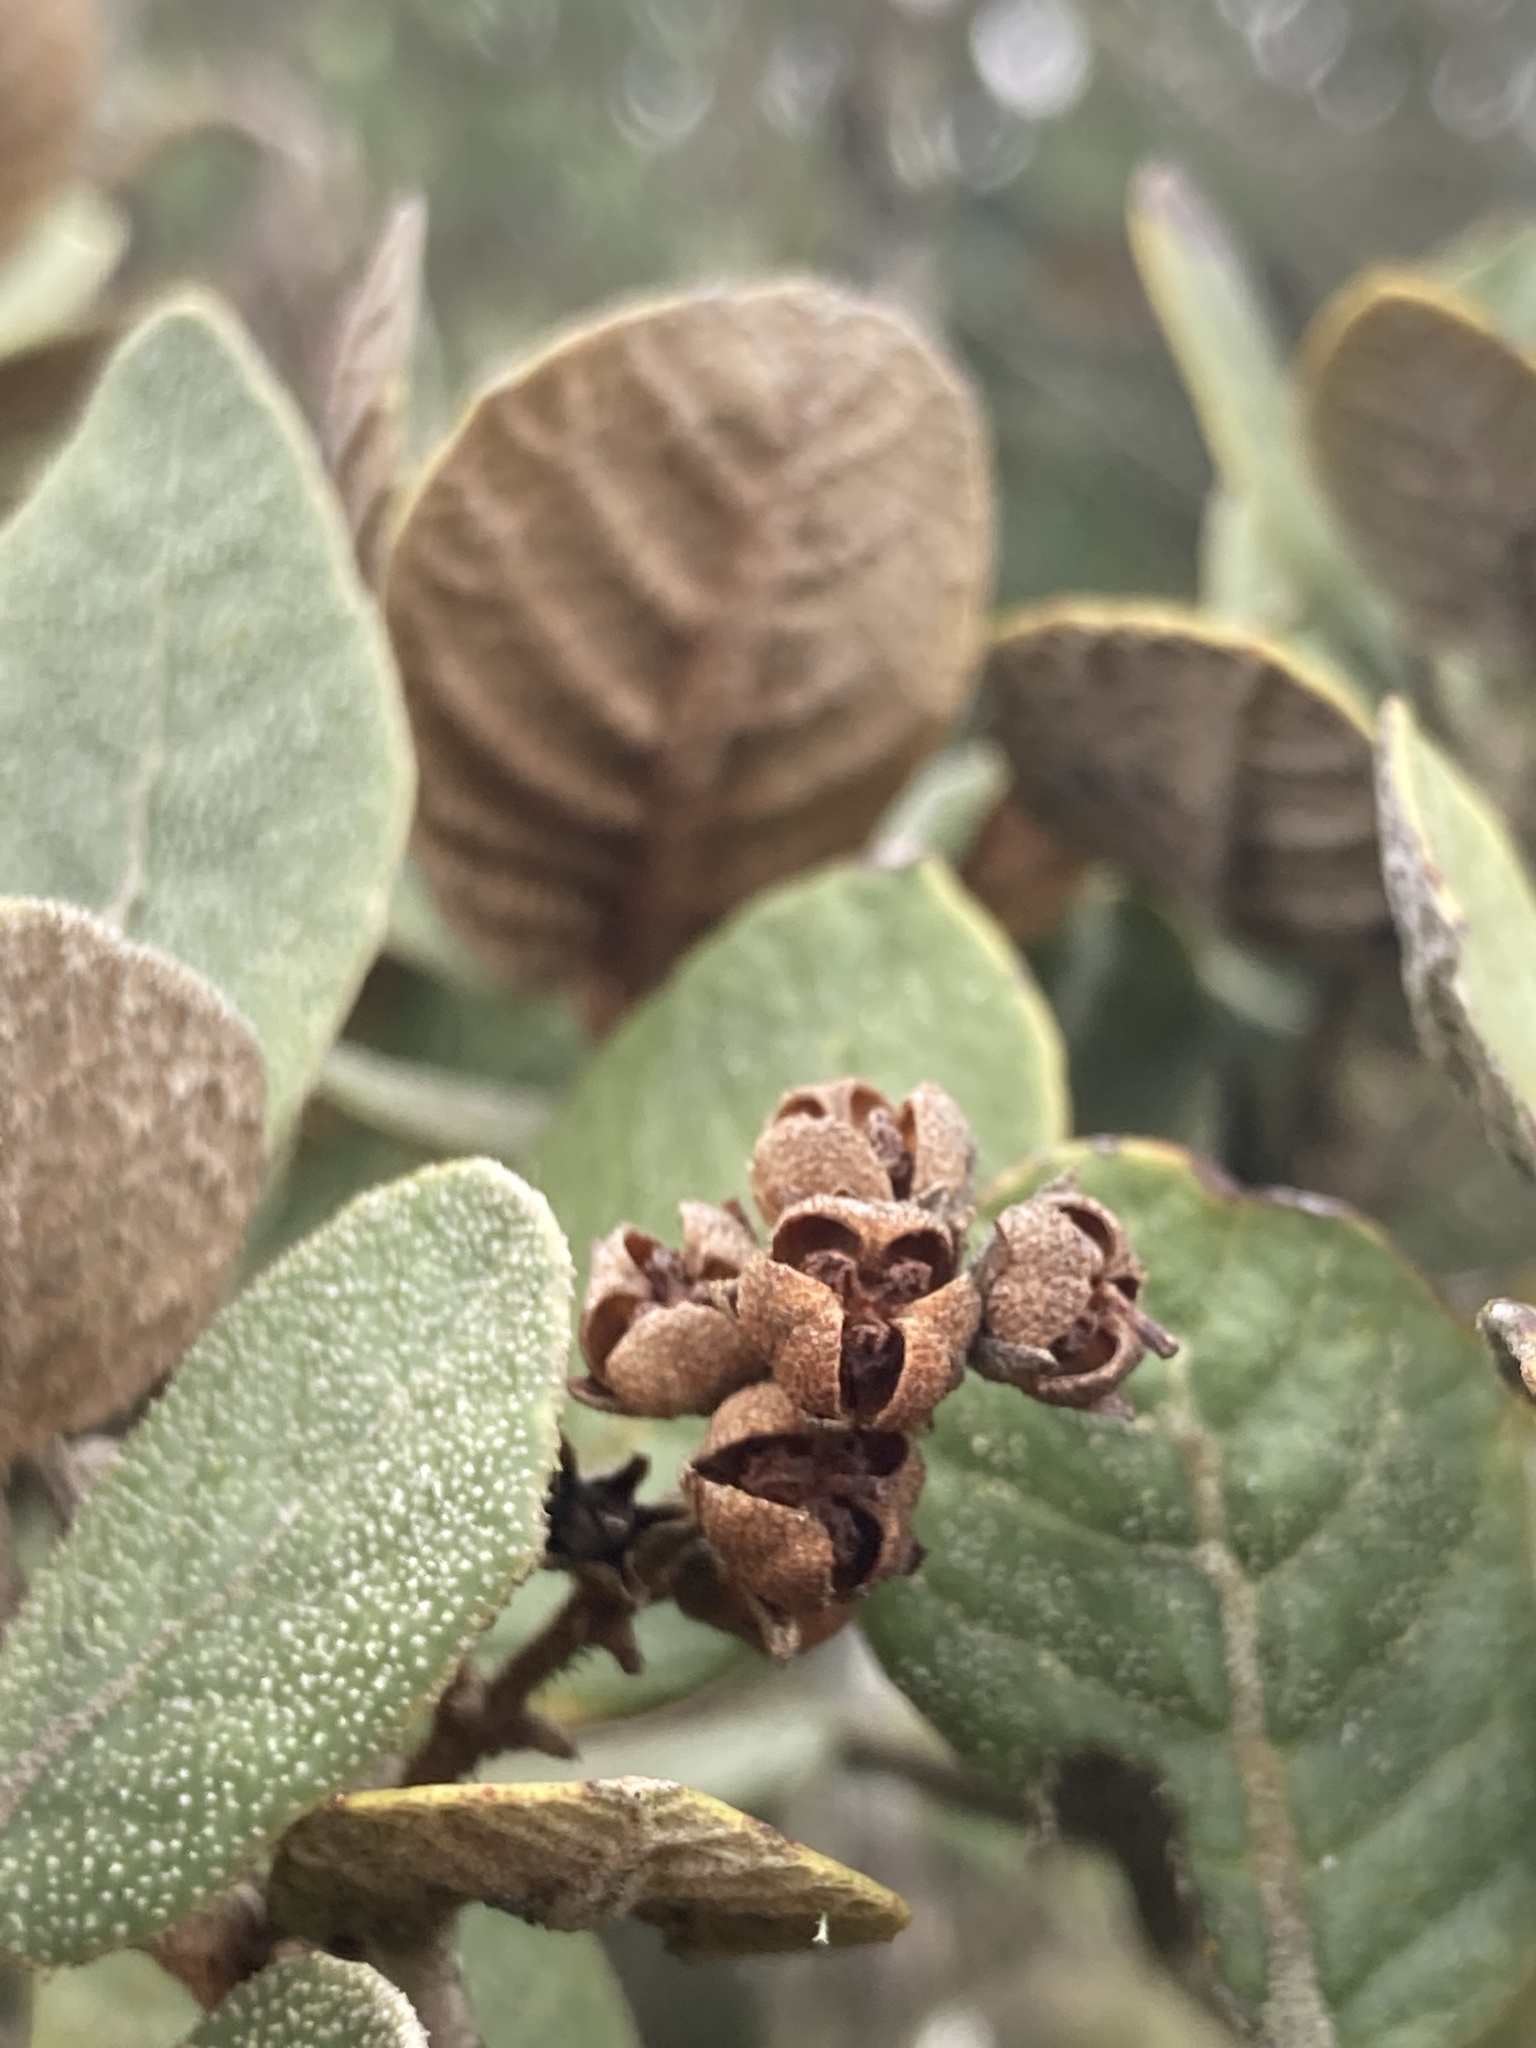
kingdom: Plantae
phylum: Tracheophyta
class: Magnoliopsida
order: Ericales
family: Clethraceae
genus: Clethra
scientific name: Clethra fimbriata
